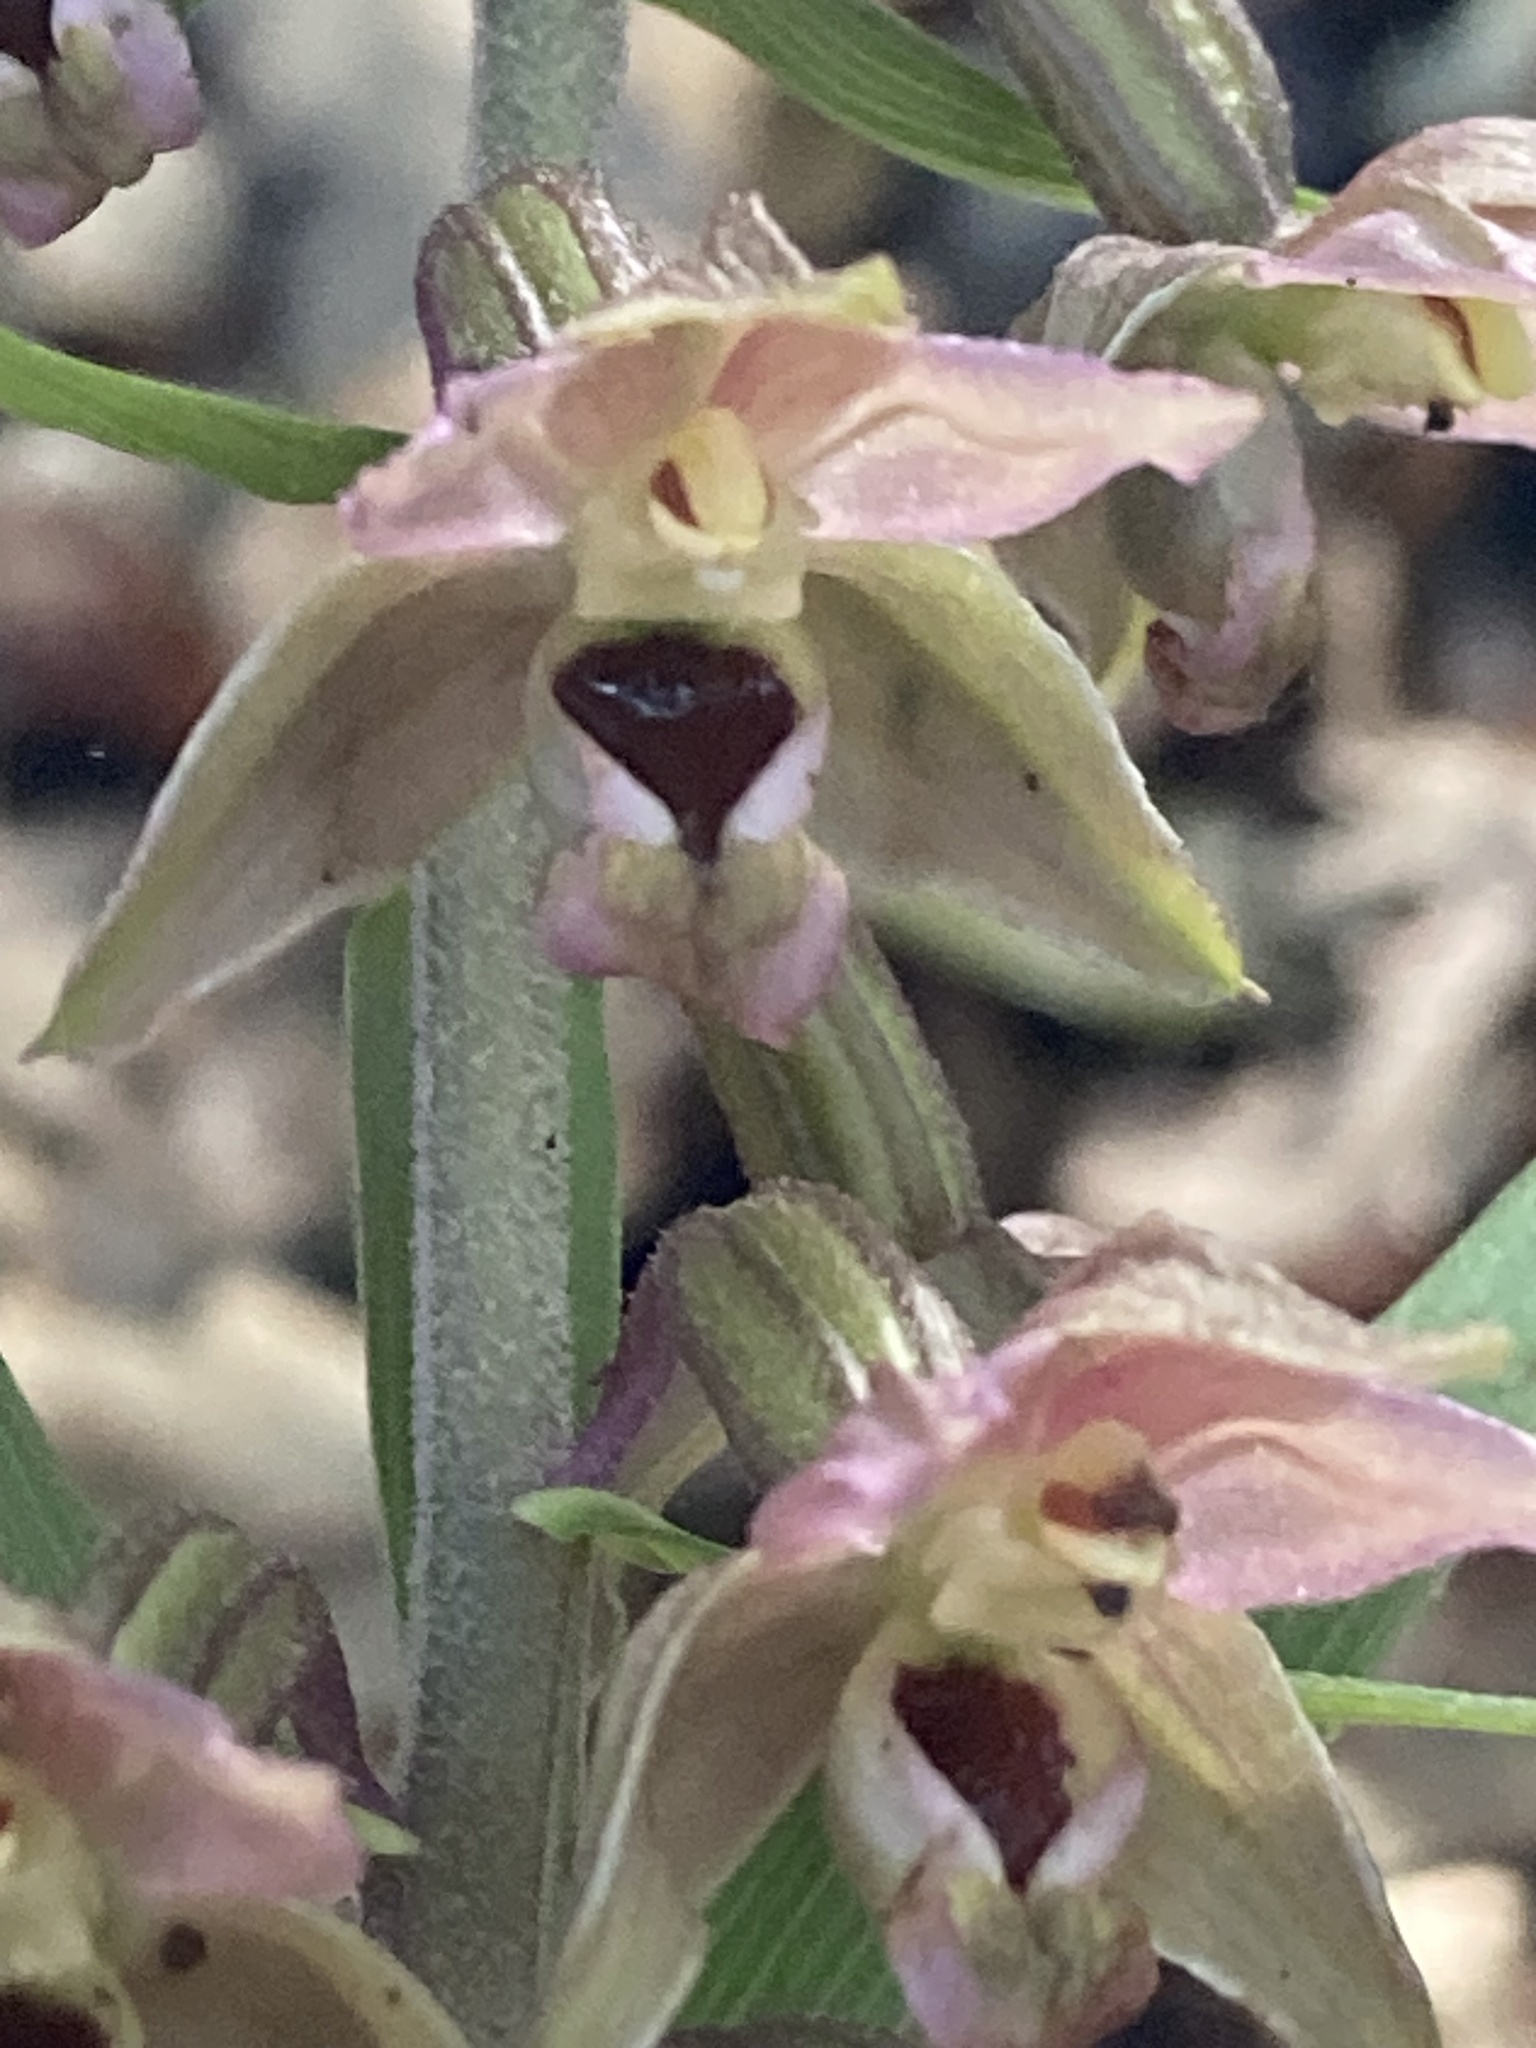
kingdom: Plantae
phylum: Tracheophyta
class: Liliopsida
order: Asparagales
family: Orchidaceae
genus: Epipactis
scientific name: Epipactis helleborine
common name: Broad-leaved helleborine
